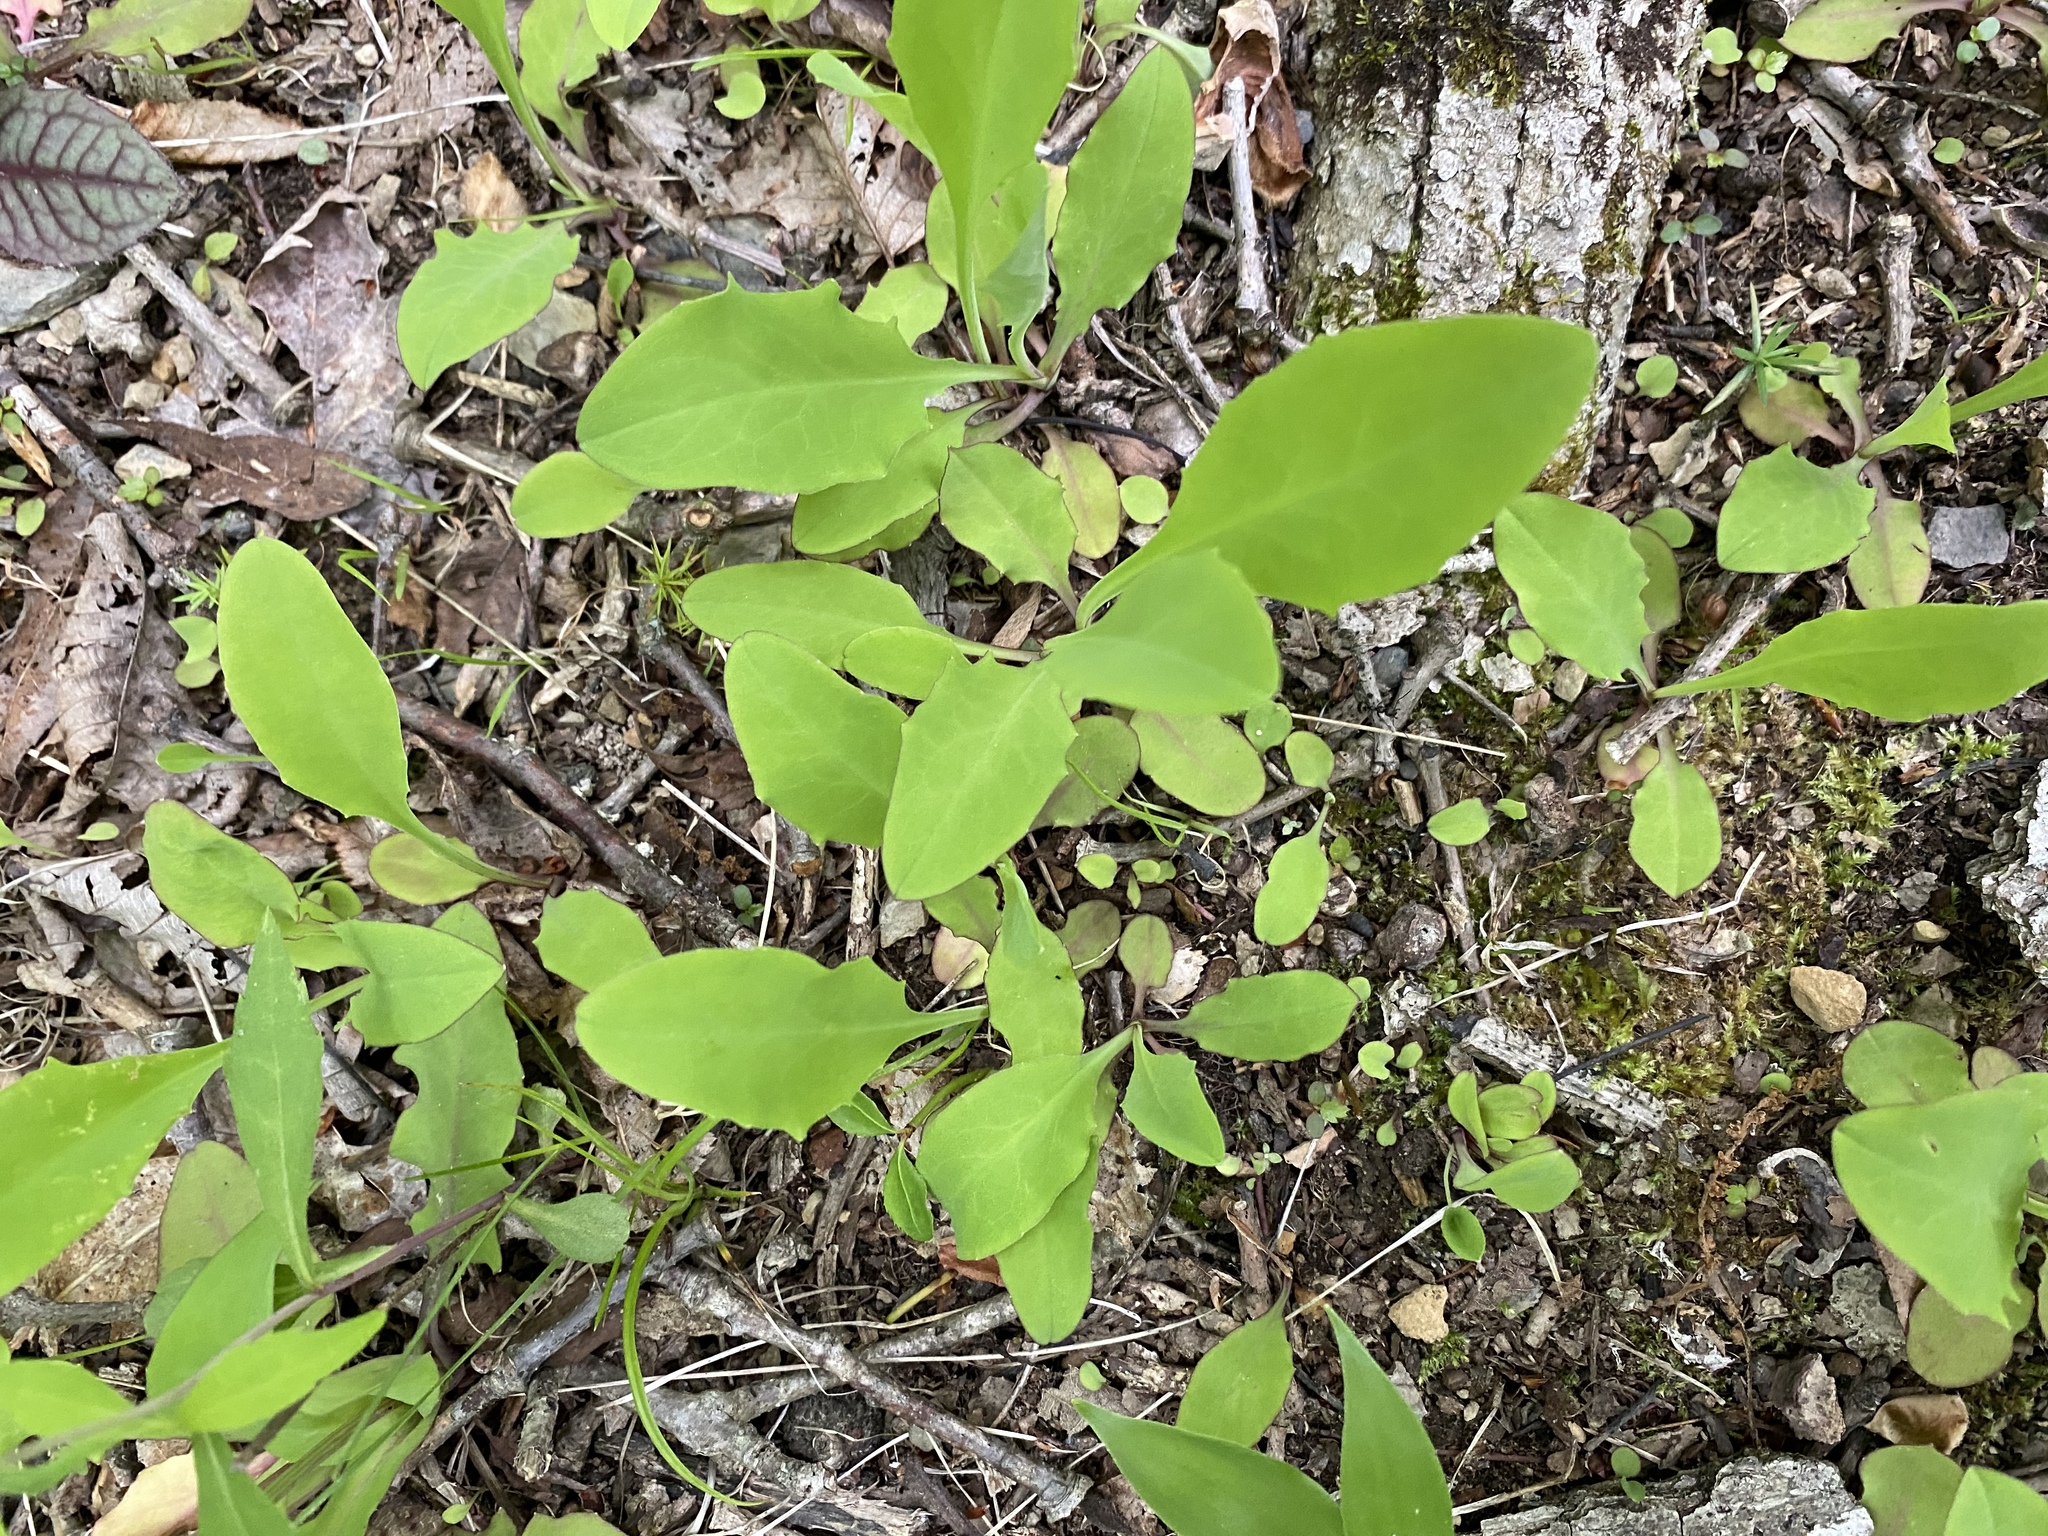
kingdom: Plantae
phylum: Tracheophyta
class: Magnoliopsida
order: Asterales
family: Asteraceae
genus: Krigia
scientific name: Krigia biflora
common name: Orange dwarf-dandelion
